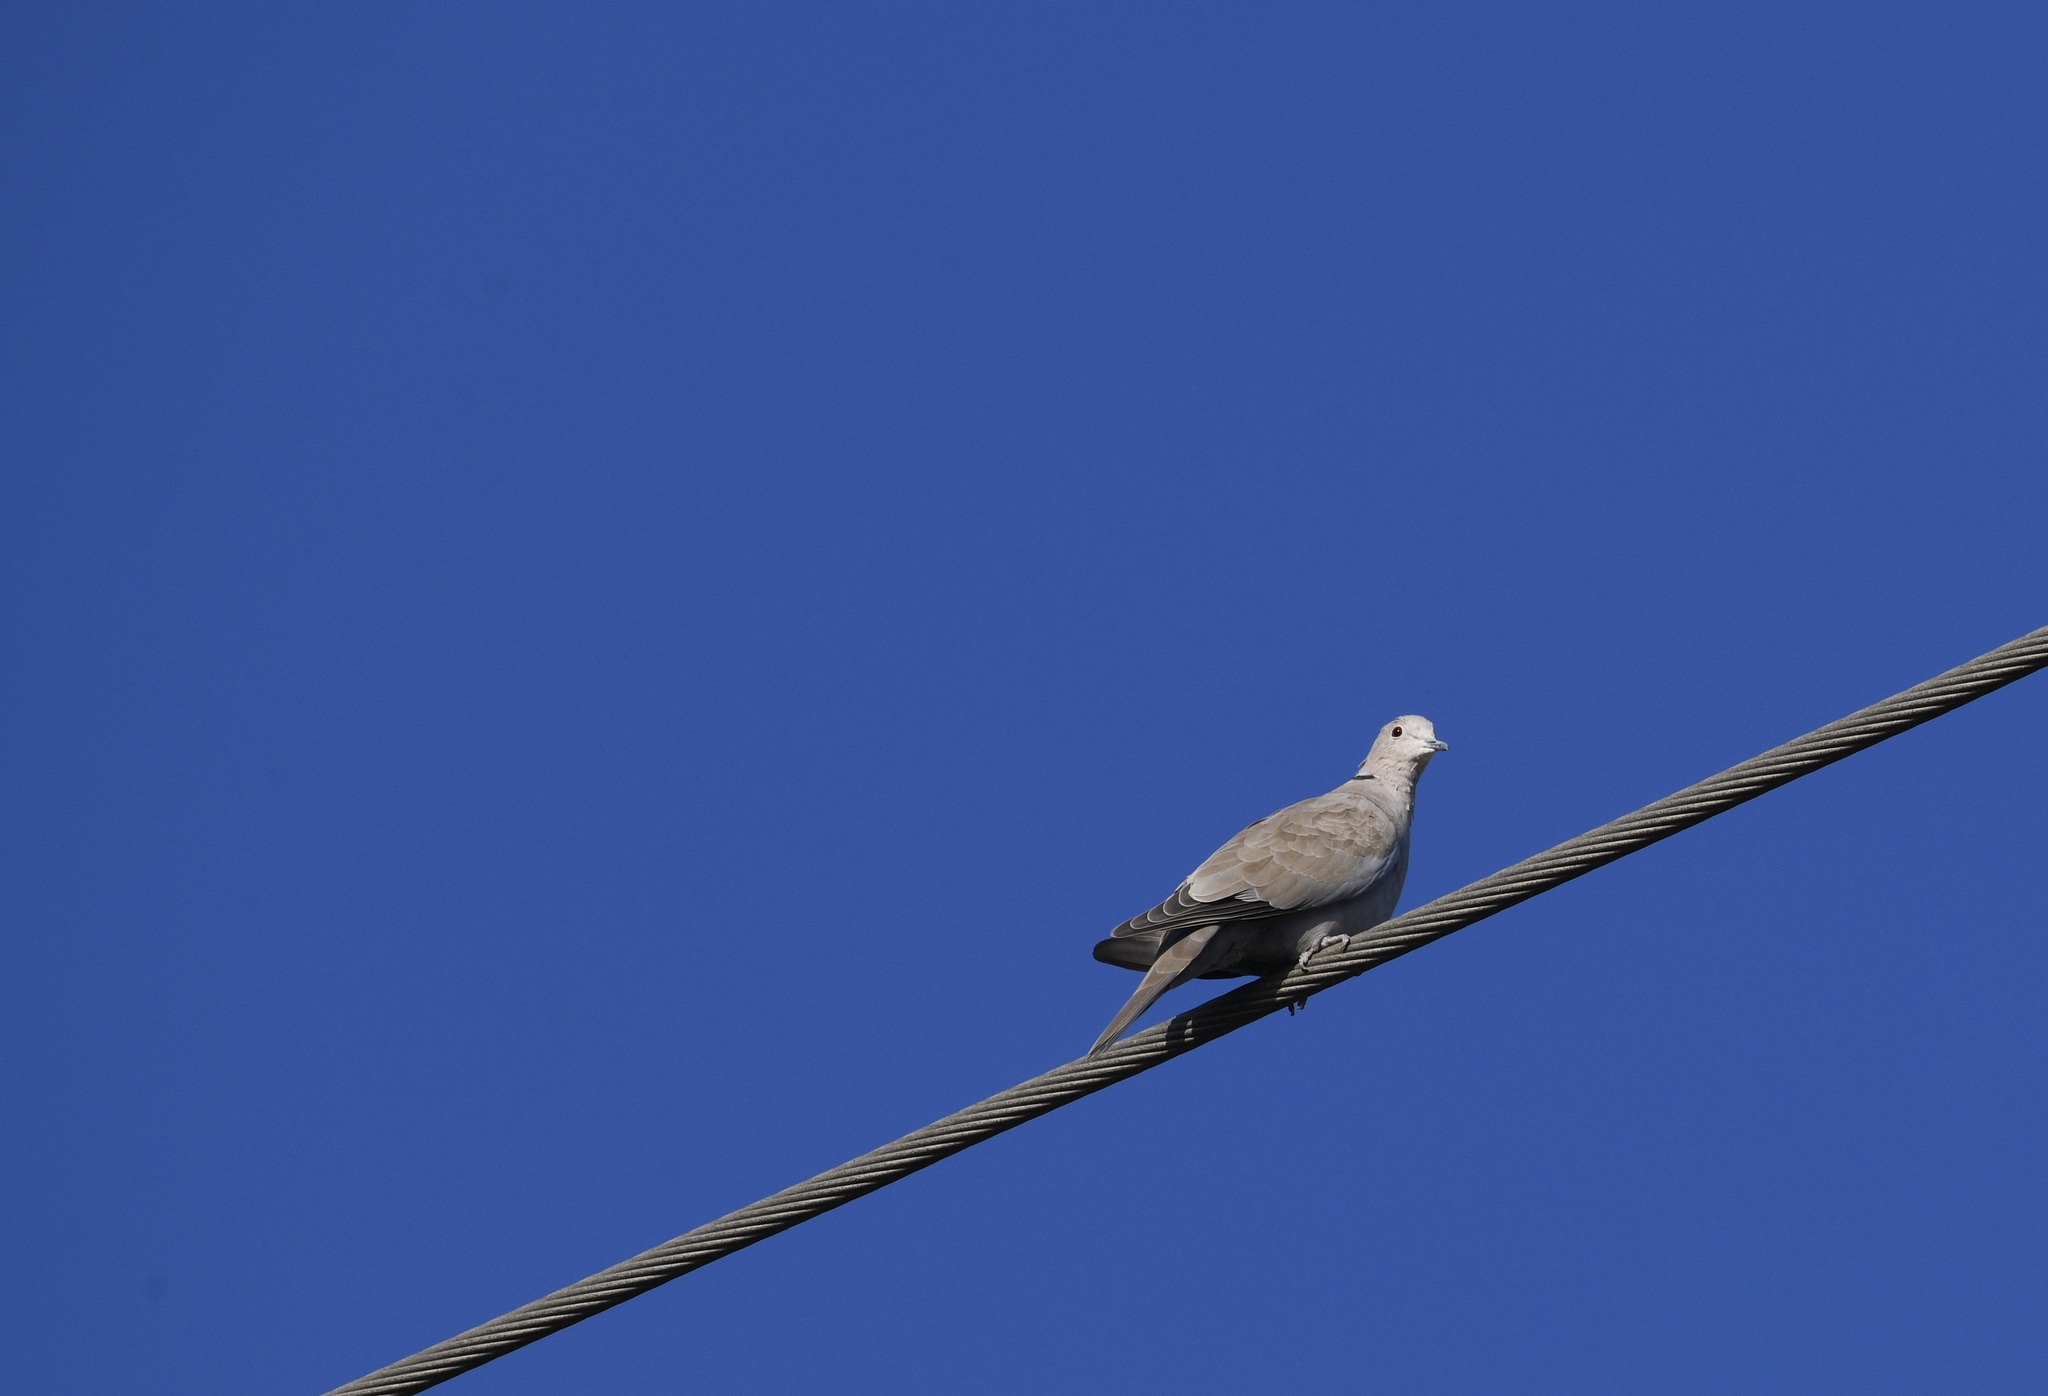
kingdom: Animalia
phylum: Chordata
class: Aves
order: Columbiformes
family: Columbidae
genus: Streptopelia
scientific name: Streptopelia decaocto
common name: Eurasian collared dove
